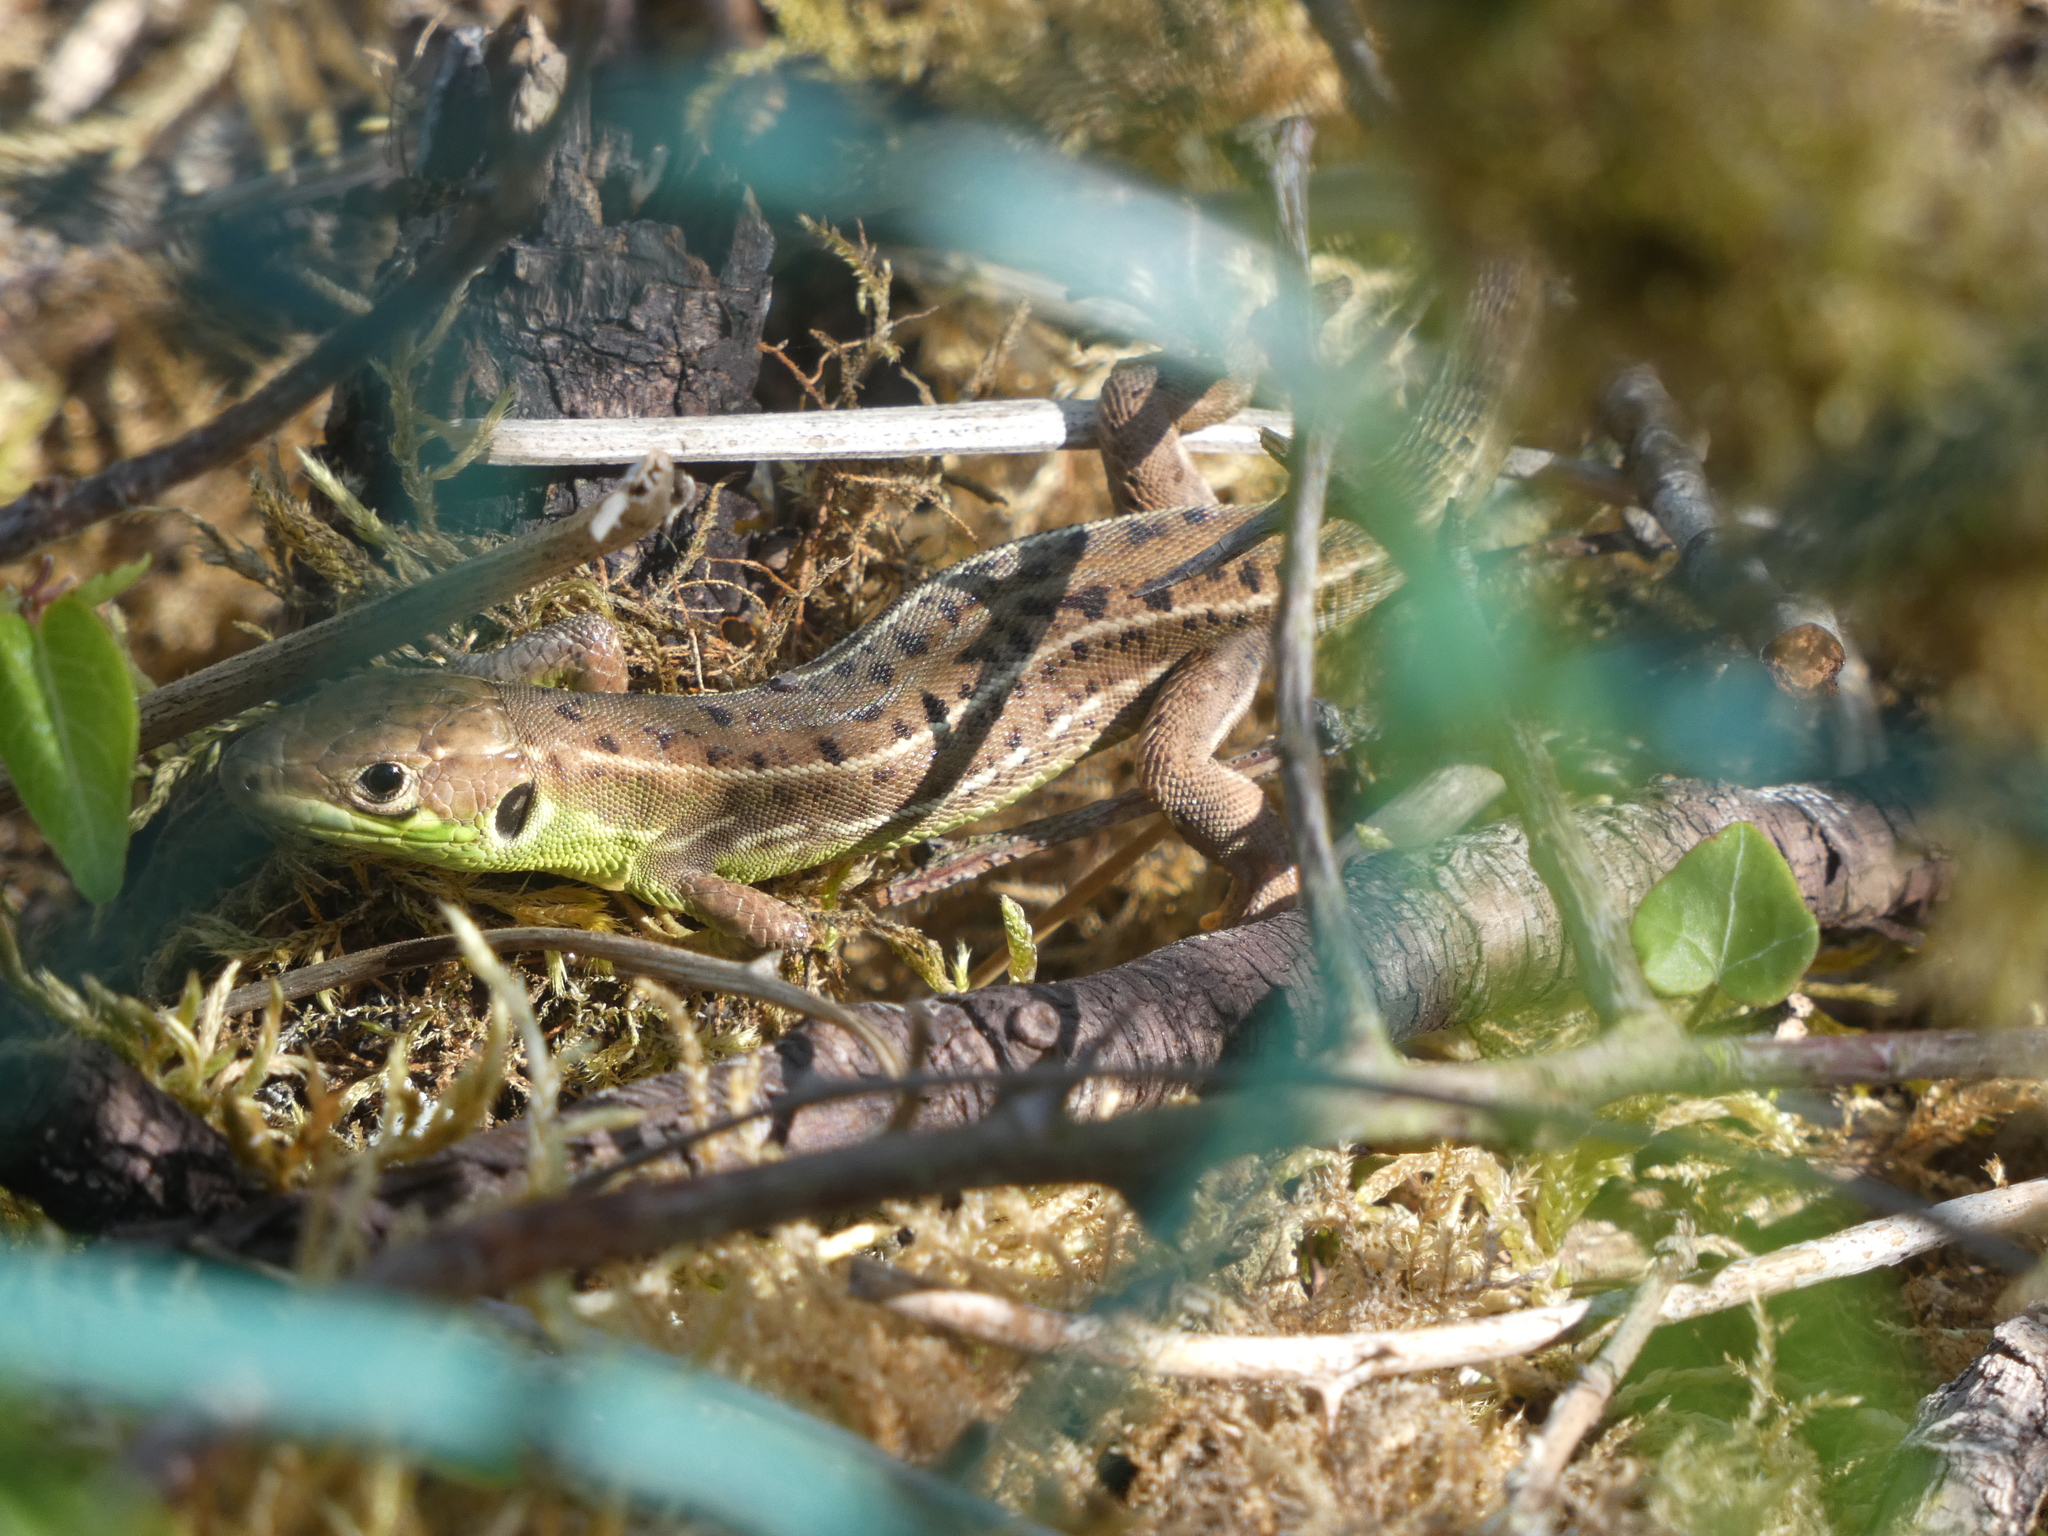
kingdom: Animalia
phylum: Chordata
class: Squamata
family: Lacertidae
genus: Lacerta
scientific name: Lacerta bilineata
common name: Western green lizard
